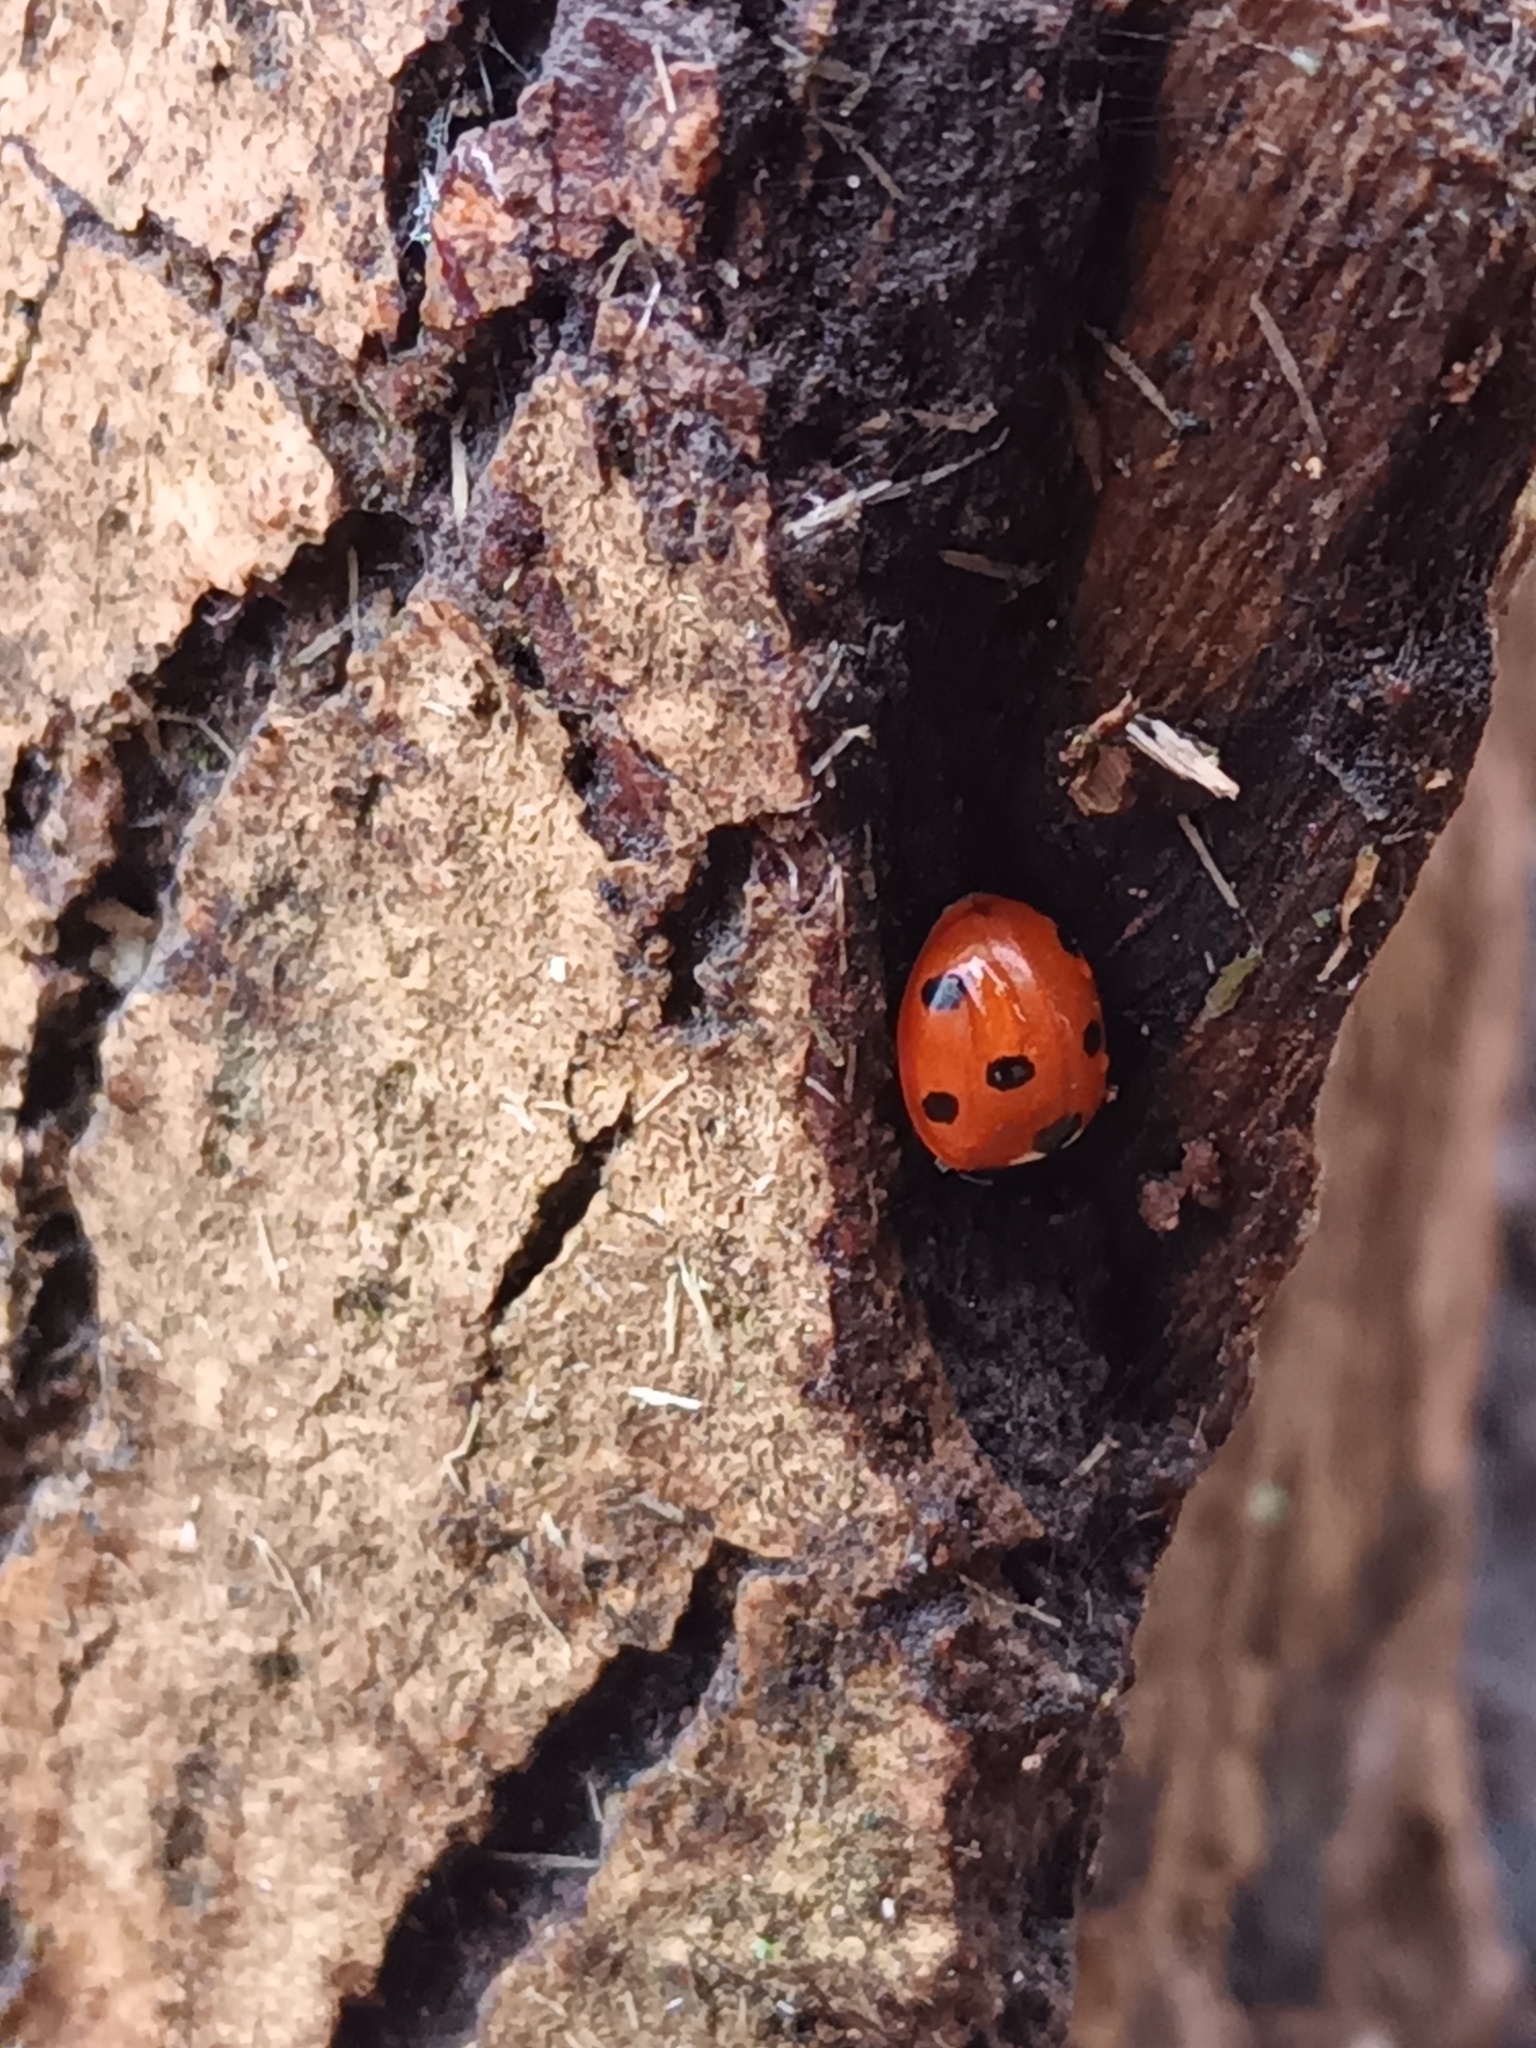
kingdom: Animalia
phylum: Arthropoda
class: Insecta
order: Coleoptera
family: Coccinellidae
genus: Coccinella
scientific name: Coccinella septempunctata
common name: Sevenspotted lady beetle
